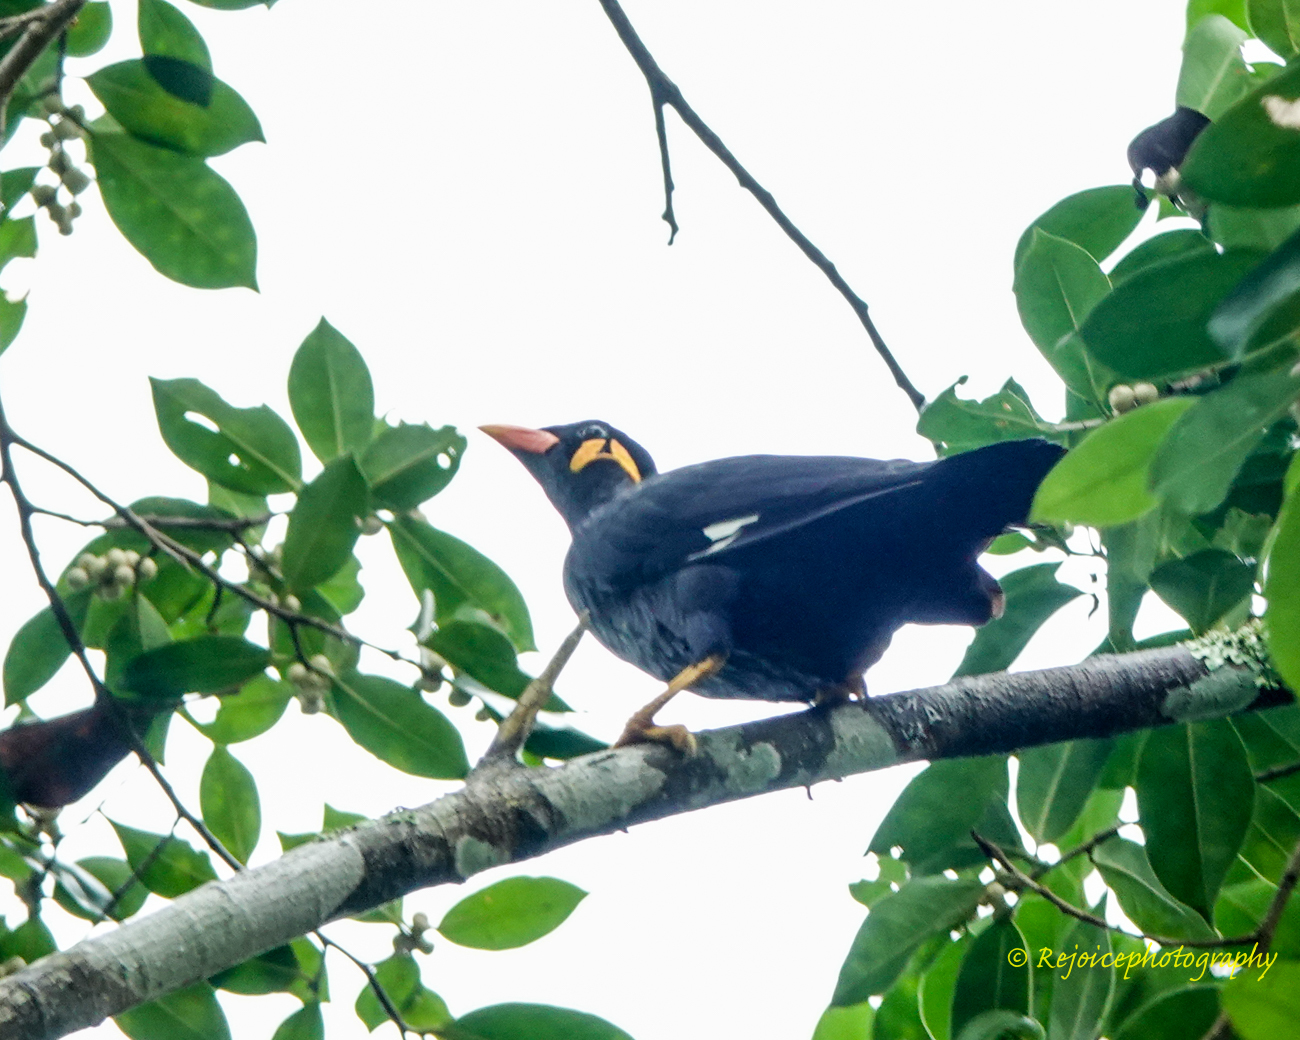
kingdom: Animalia
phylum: Chordata
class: Aves
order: Passeriformes
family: Sturnidae
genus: Gracula
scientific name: Gracula religiosa
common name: Common hill myna
